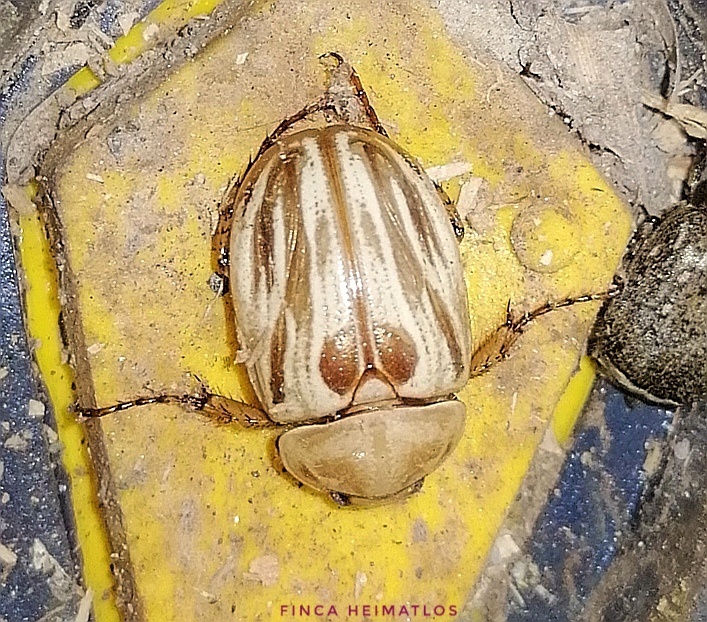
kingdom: Animalia
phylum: Arthropoda
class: Insecta
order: Coleoptera
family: Scarabaeidae
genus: Cyclocephala
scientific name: Cyclocephala crassa
